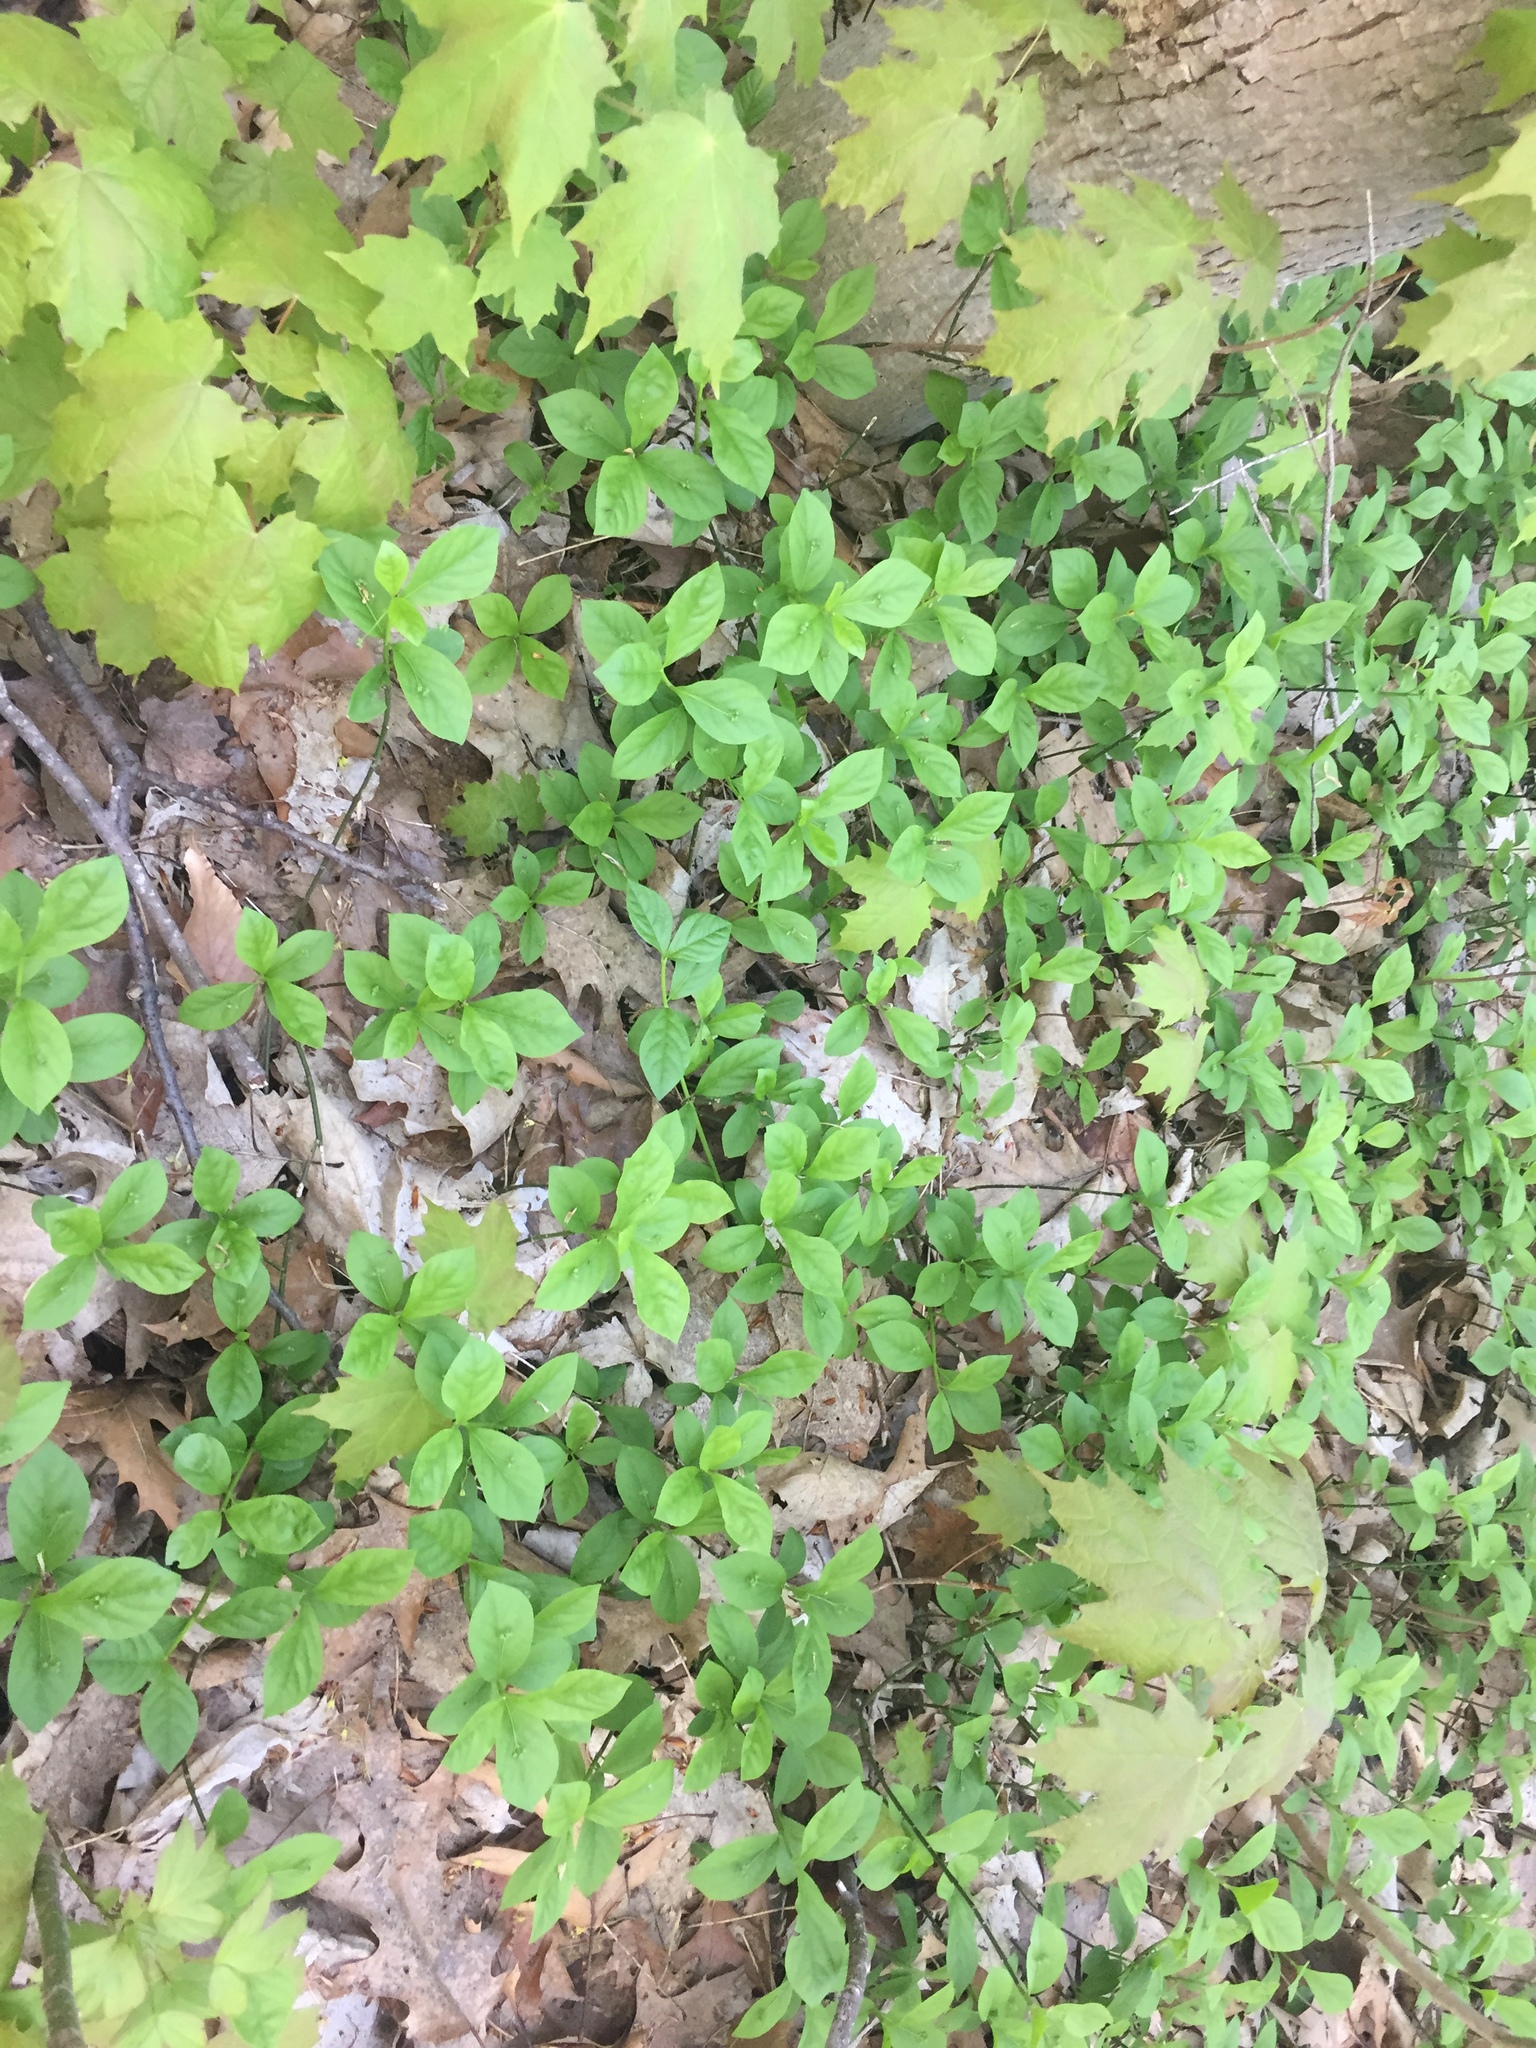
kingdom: Plantae
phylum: Tracheophyta
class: Magnoliopsida
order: Celastrales
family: Celastraceae
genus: Euonymus
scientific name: Euonymus obovatus
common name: Running strawberry-bush
